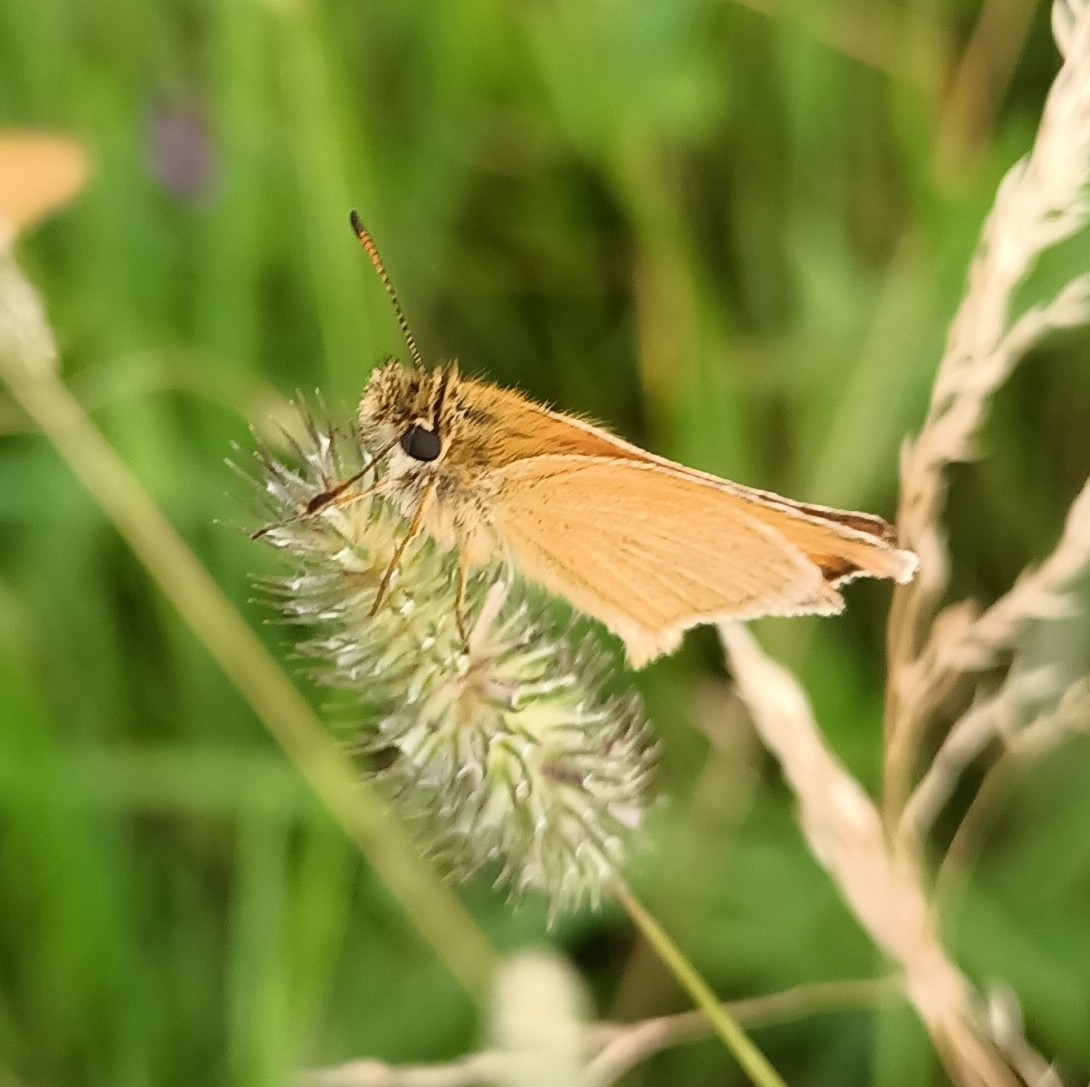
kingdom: Animalia
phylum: Arthropoda
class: Insecta
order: Lepidoptera
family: Hesperiidae
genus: Thymelicus
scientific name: Thymelicus lineola
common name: Essex skipper
